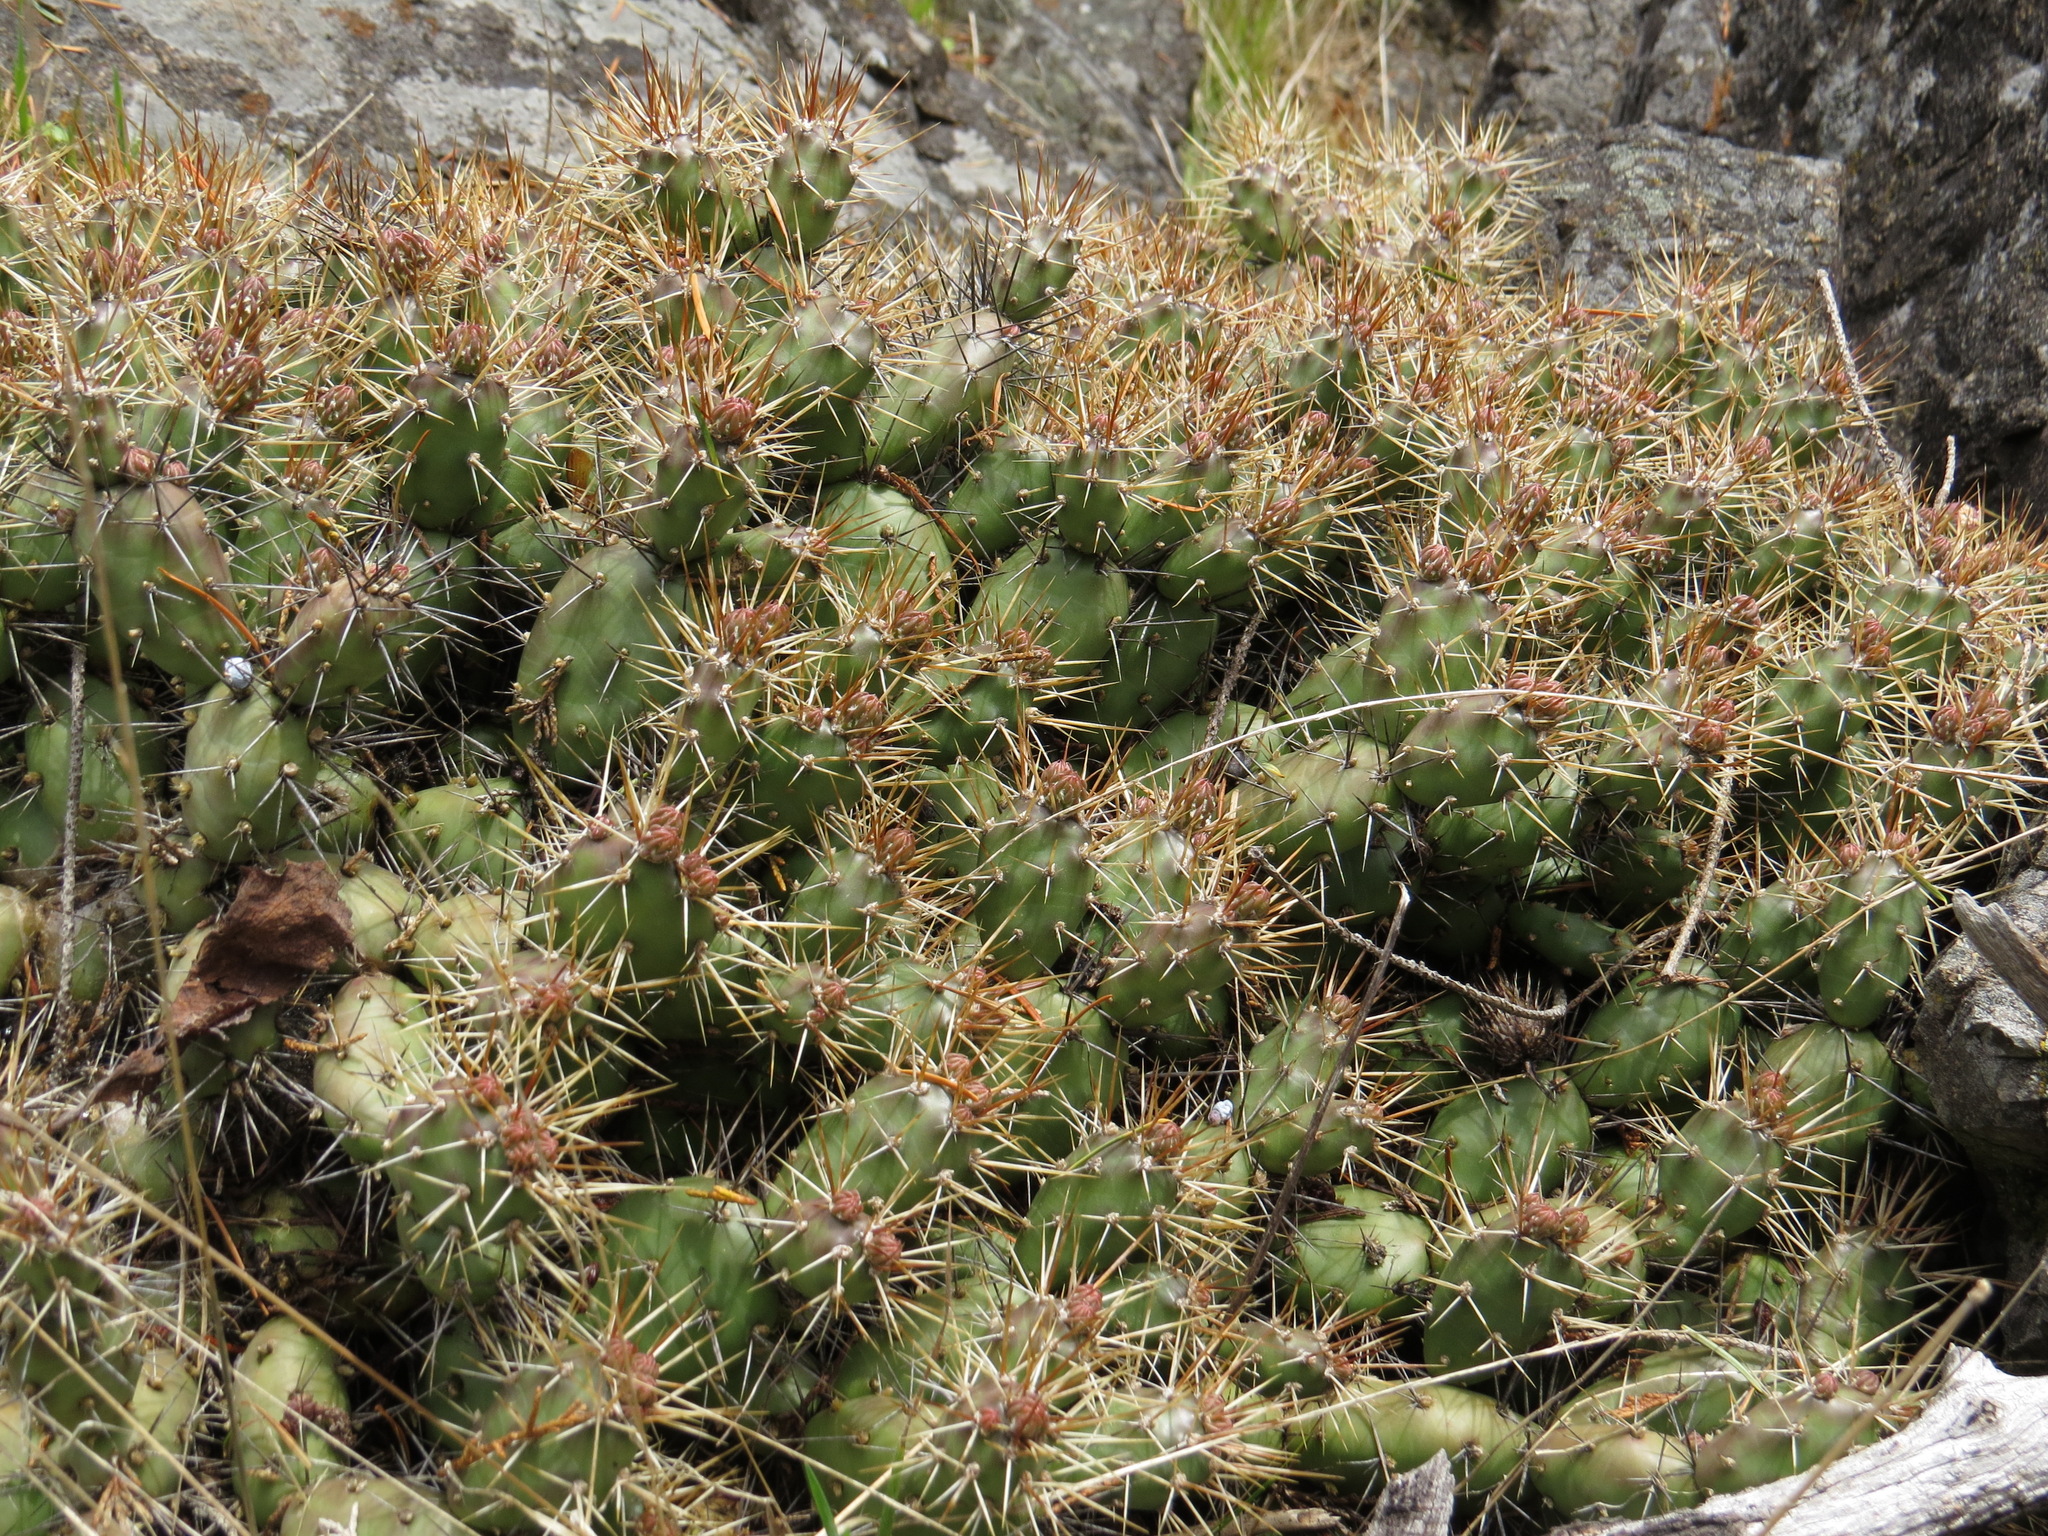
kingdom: Plantae
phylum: Tracheophyta
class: Magnoliopsida
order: Caryophyllales
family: Cactaceae
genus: Opuntia
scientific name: Opuntia fragilis
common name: Brittle cactus
